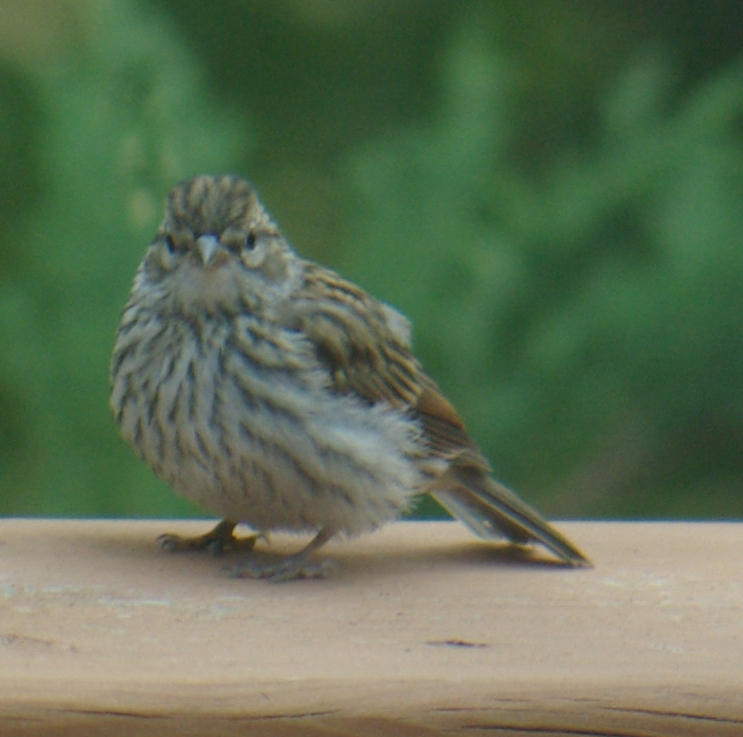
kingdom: Animalia
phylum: Chordata
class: Aves
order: Passeriformes
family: Passerellidae
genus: Spizella
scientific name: Spizella passerina
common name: Chipping sparrow
